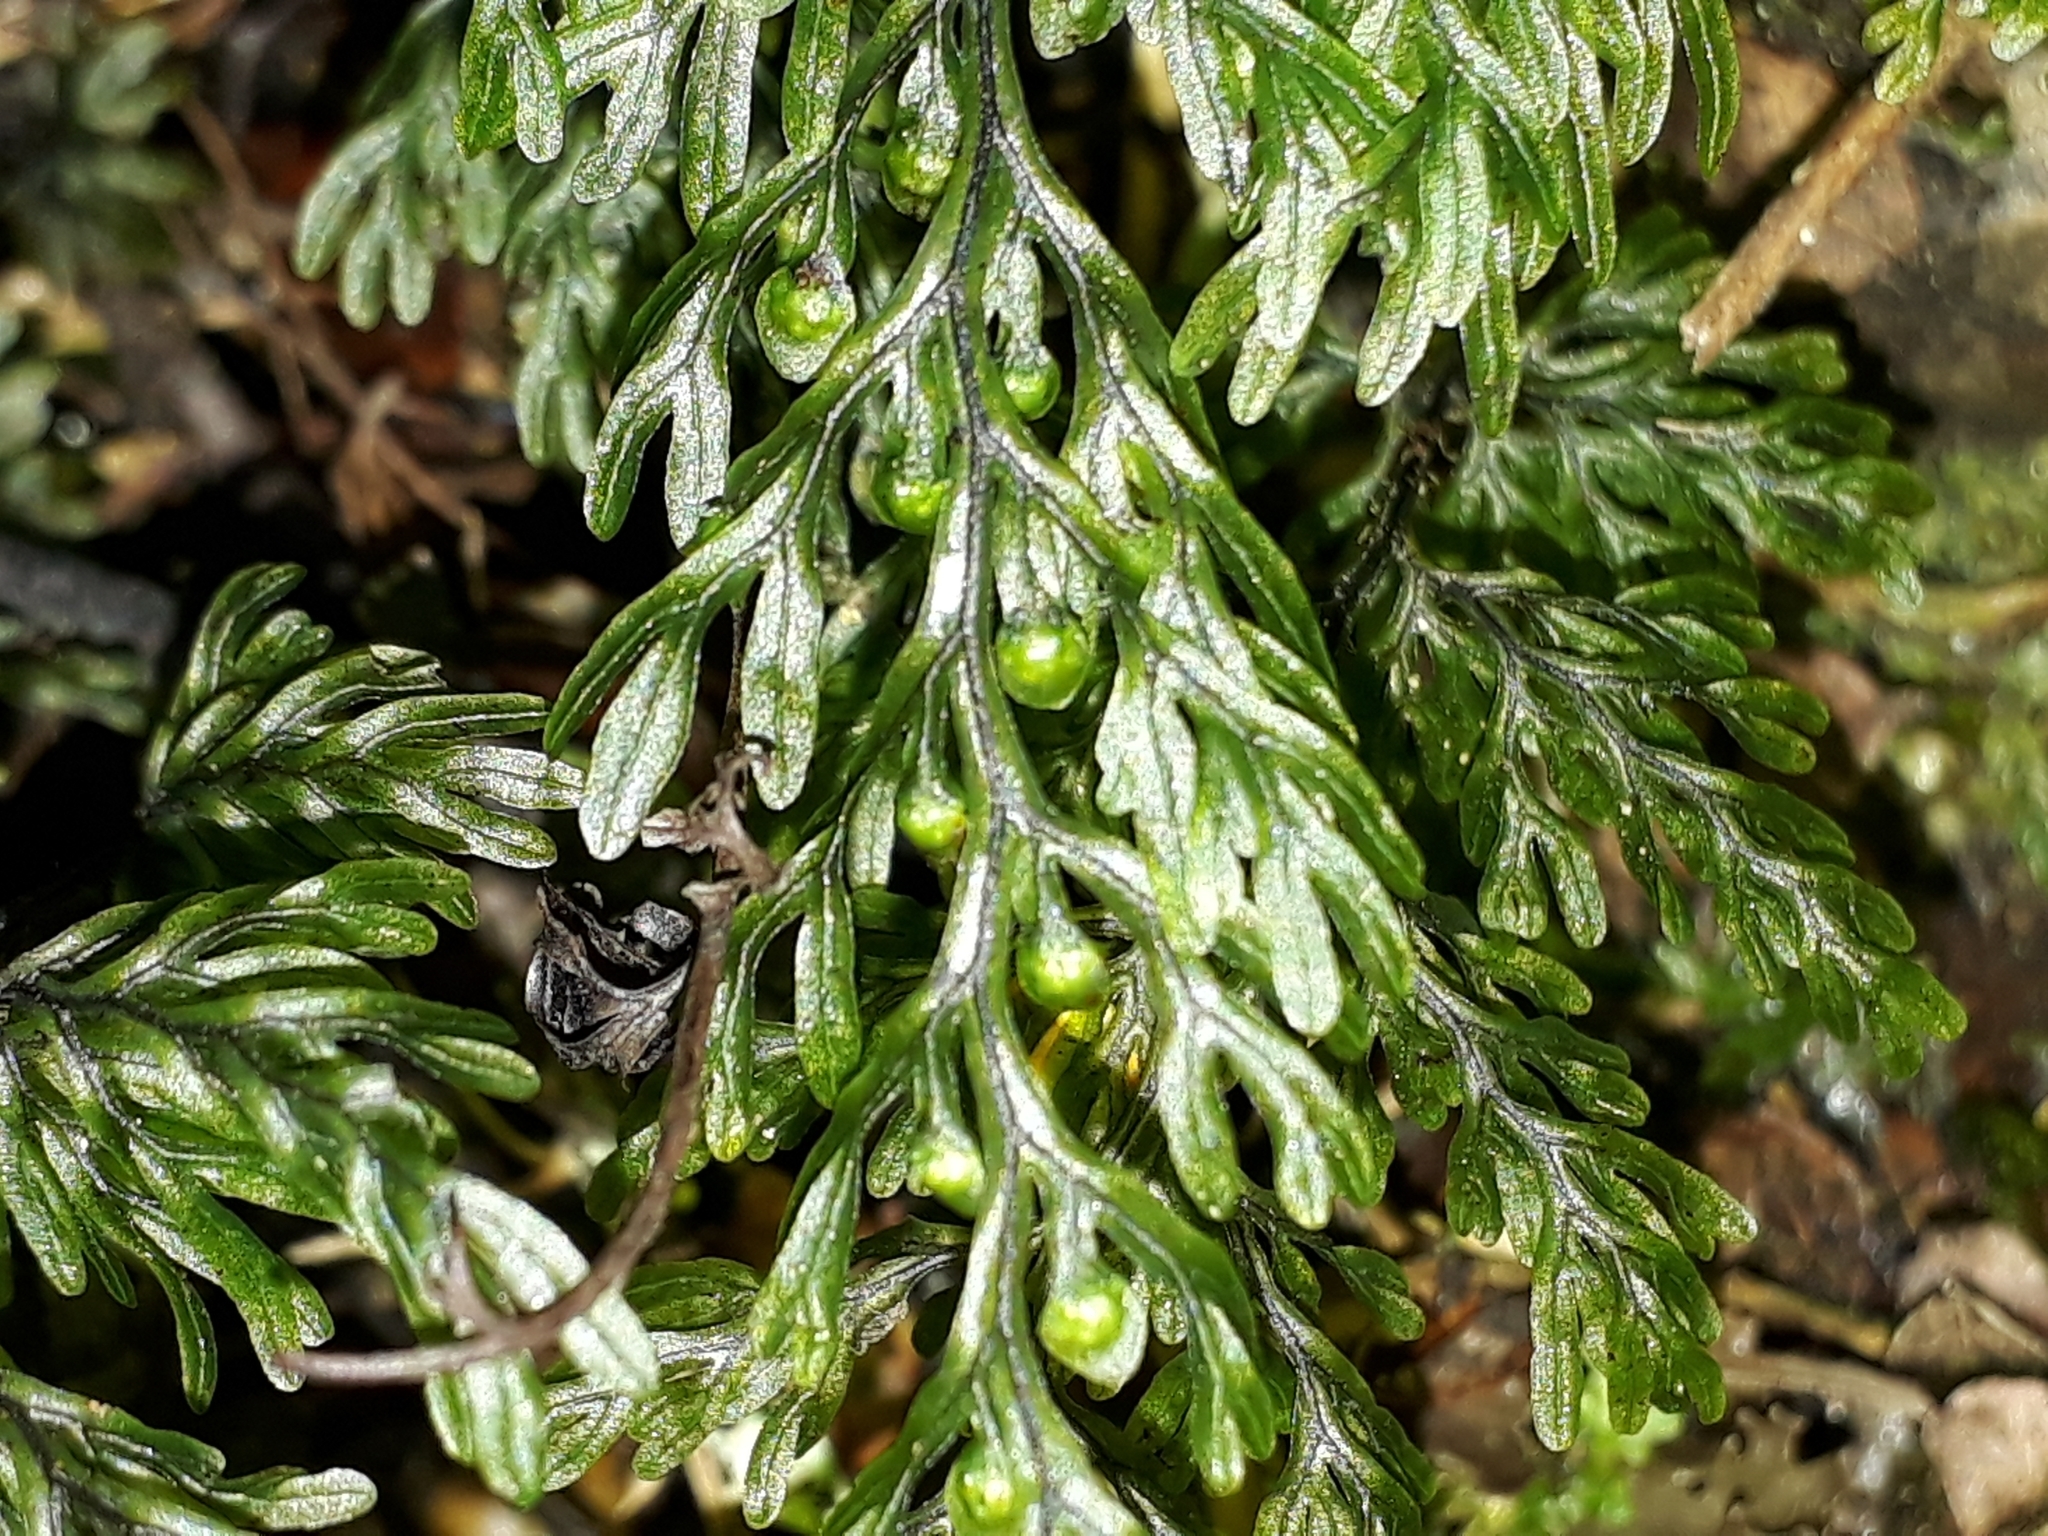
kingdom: Plantae
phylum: Tracheophyta
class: Polypodiopsida
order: Hymenophyllales
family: Hymenophyllaceae
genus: Hymenophyllum
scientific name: Hymenophyllum villosum
